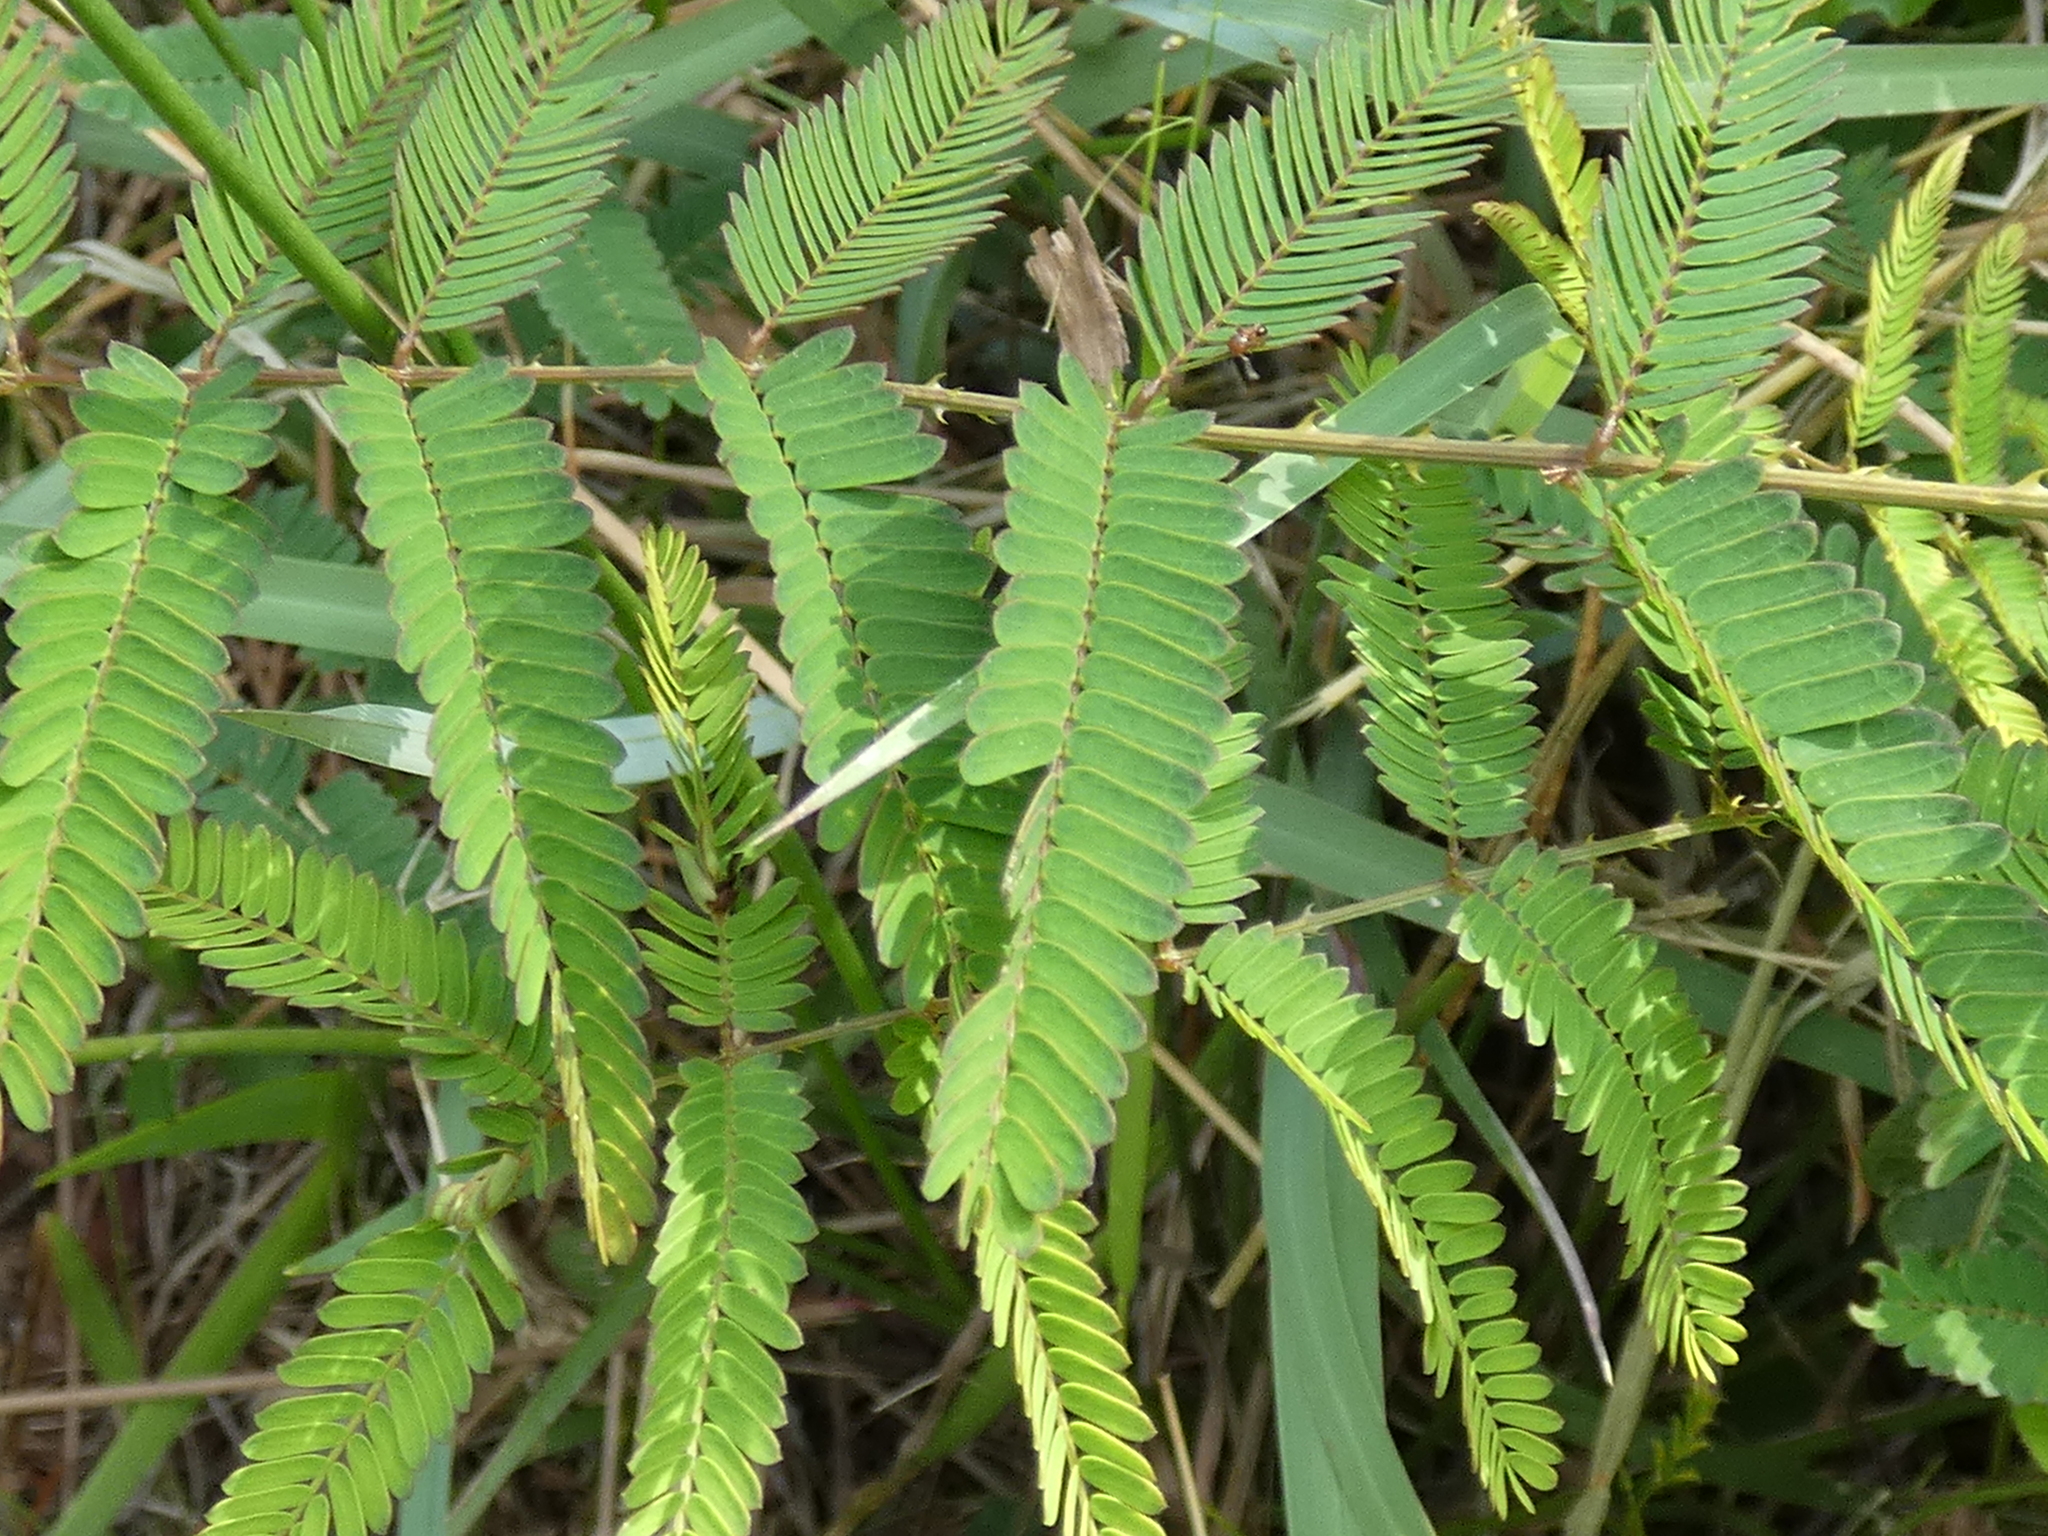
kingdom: Plantae
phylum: Tracheophyta
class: Magnoliopsida
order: Fabales
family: Fabaceae
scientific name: Fabaceae
